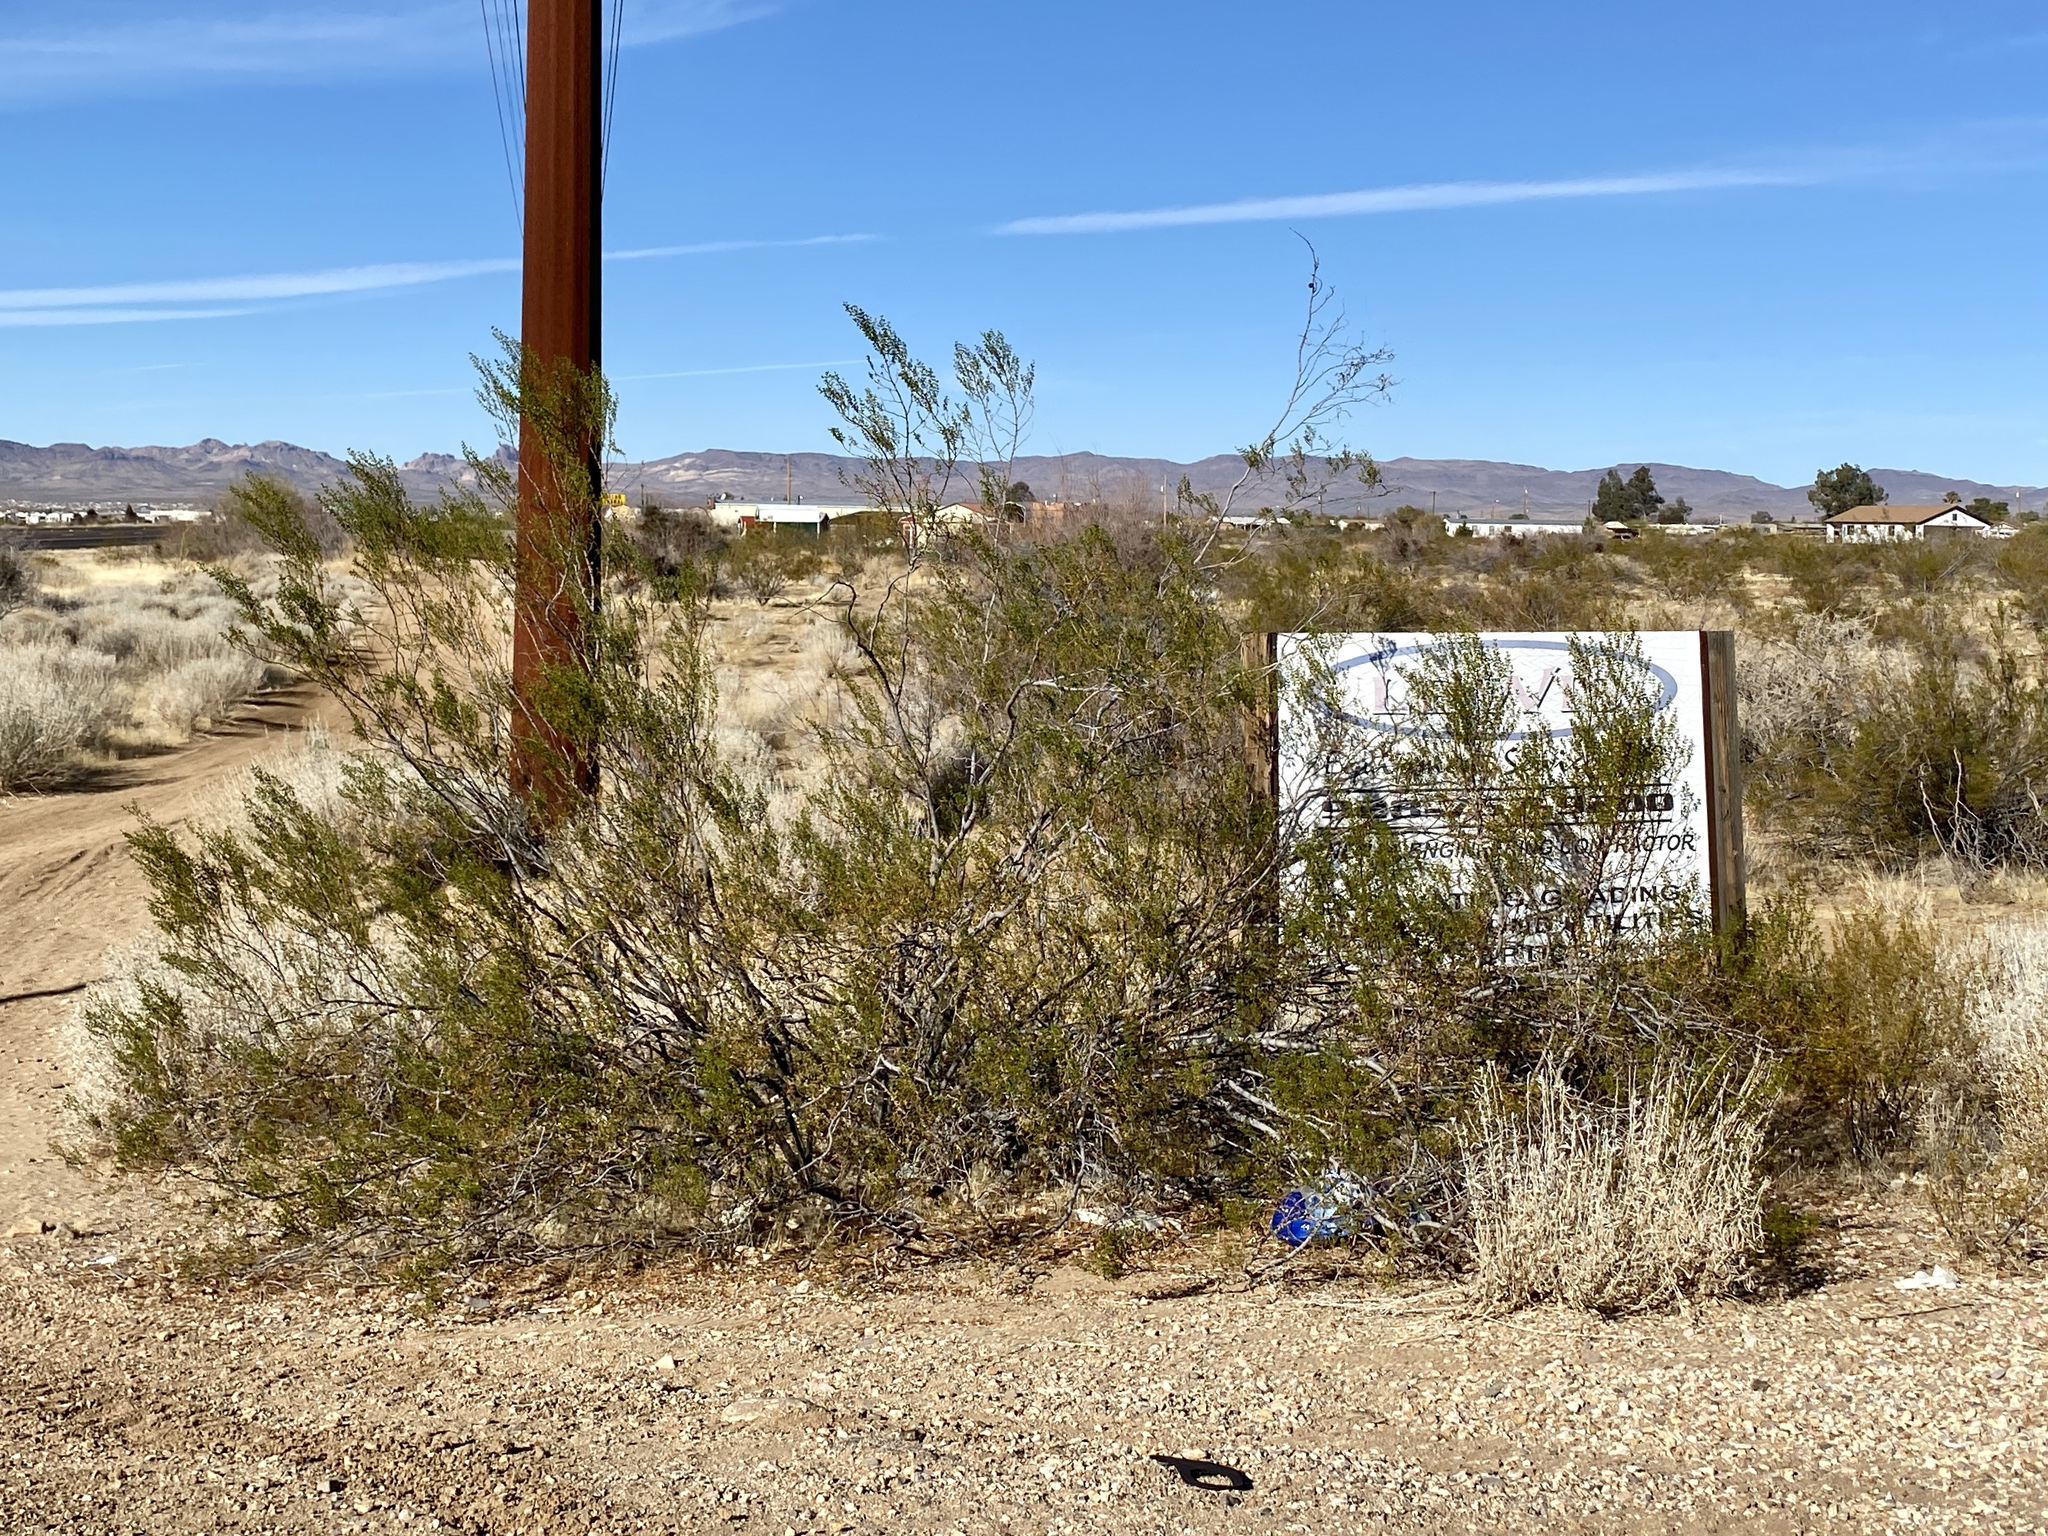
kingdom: Plantae
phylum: Tracheophyta
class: Magnoliopsida
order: Zygophyllales
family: Zygophyllaceae
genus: Larrea
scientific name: Larrea tridentata
